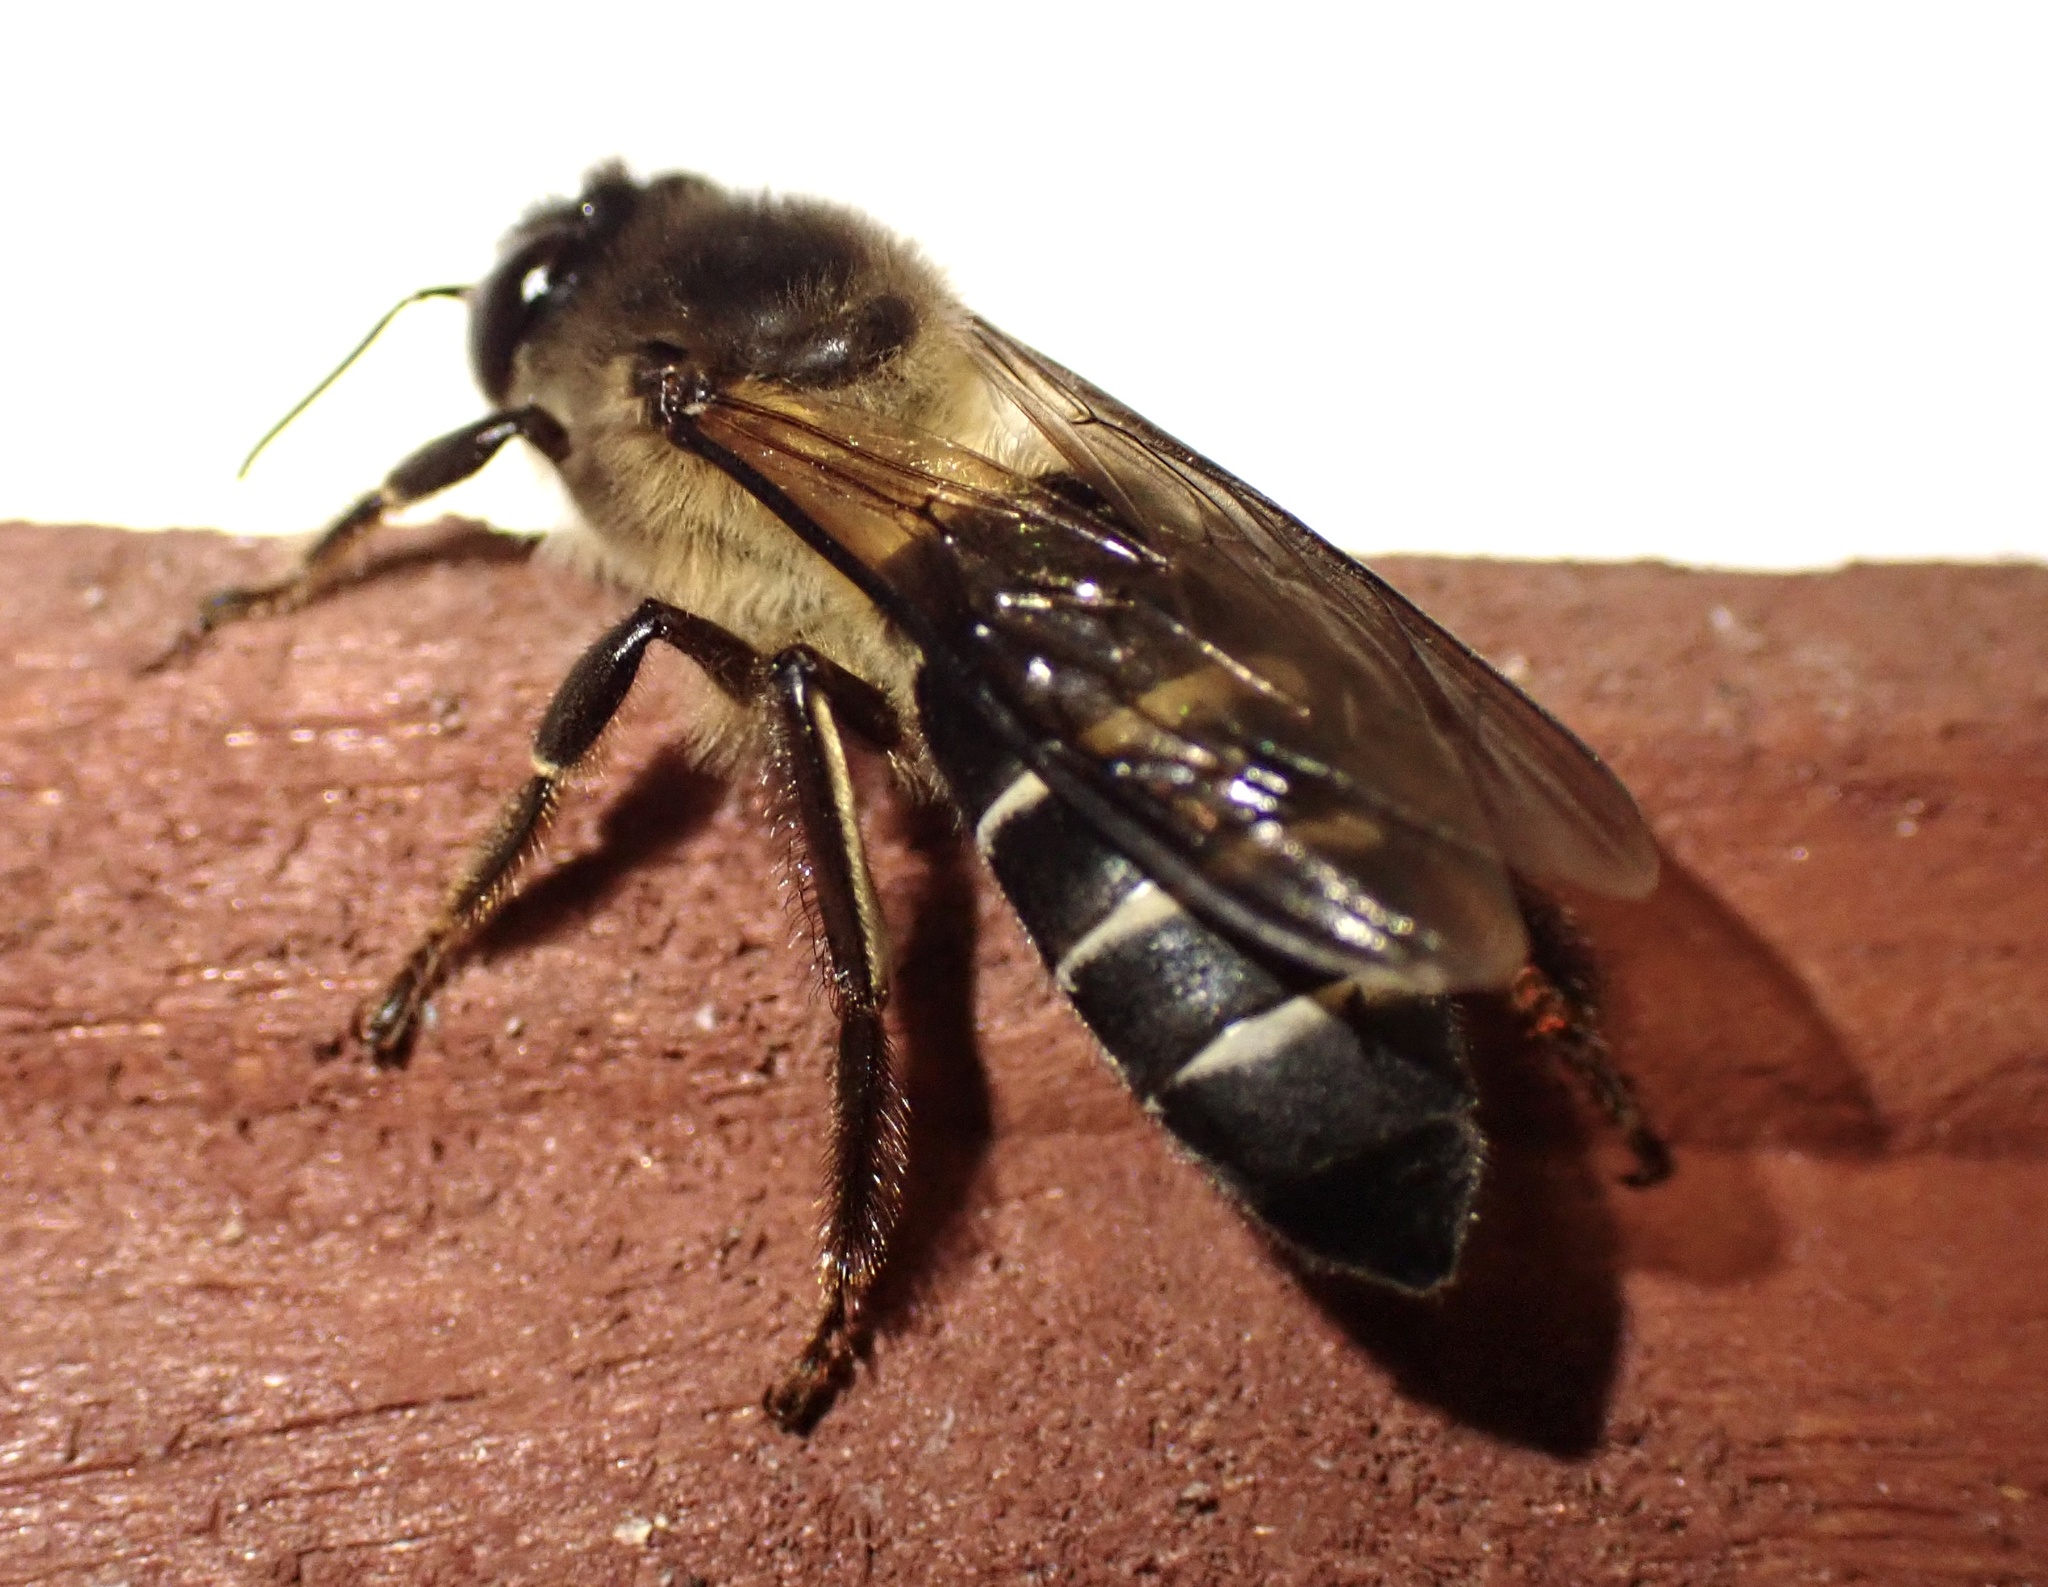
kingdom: Animalia
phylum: Arthropoda
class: Insecta
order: Hymenoptera
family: Apidae
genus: Apis
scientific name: Apis dorsata
